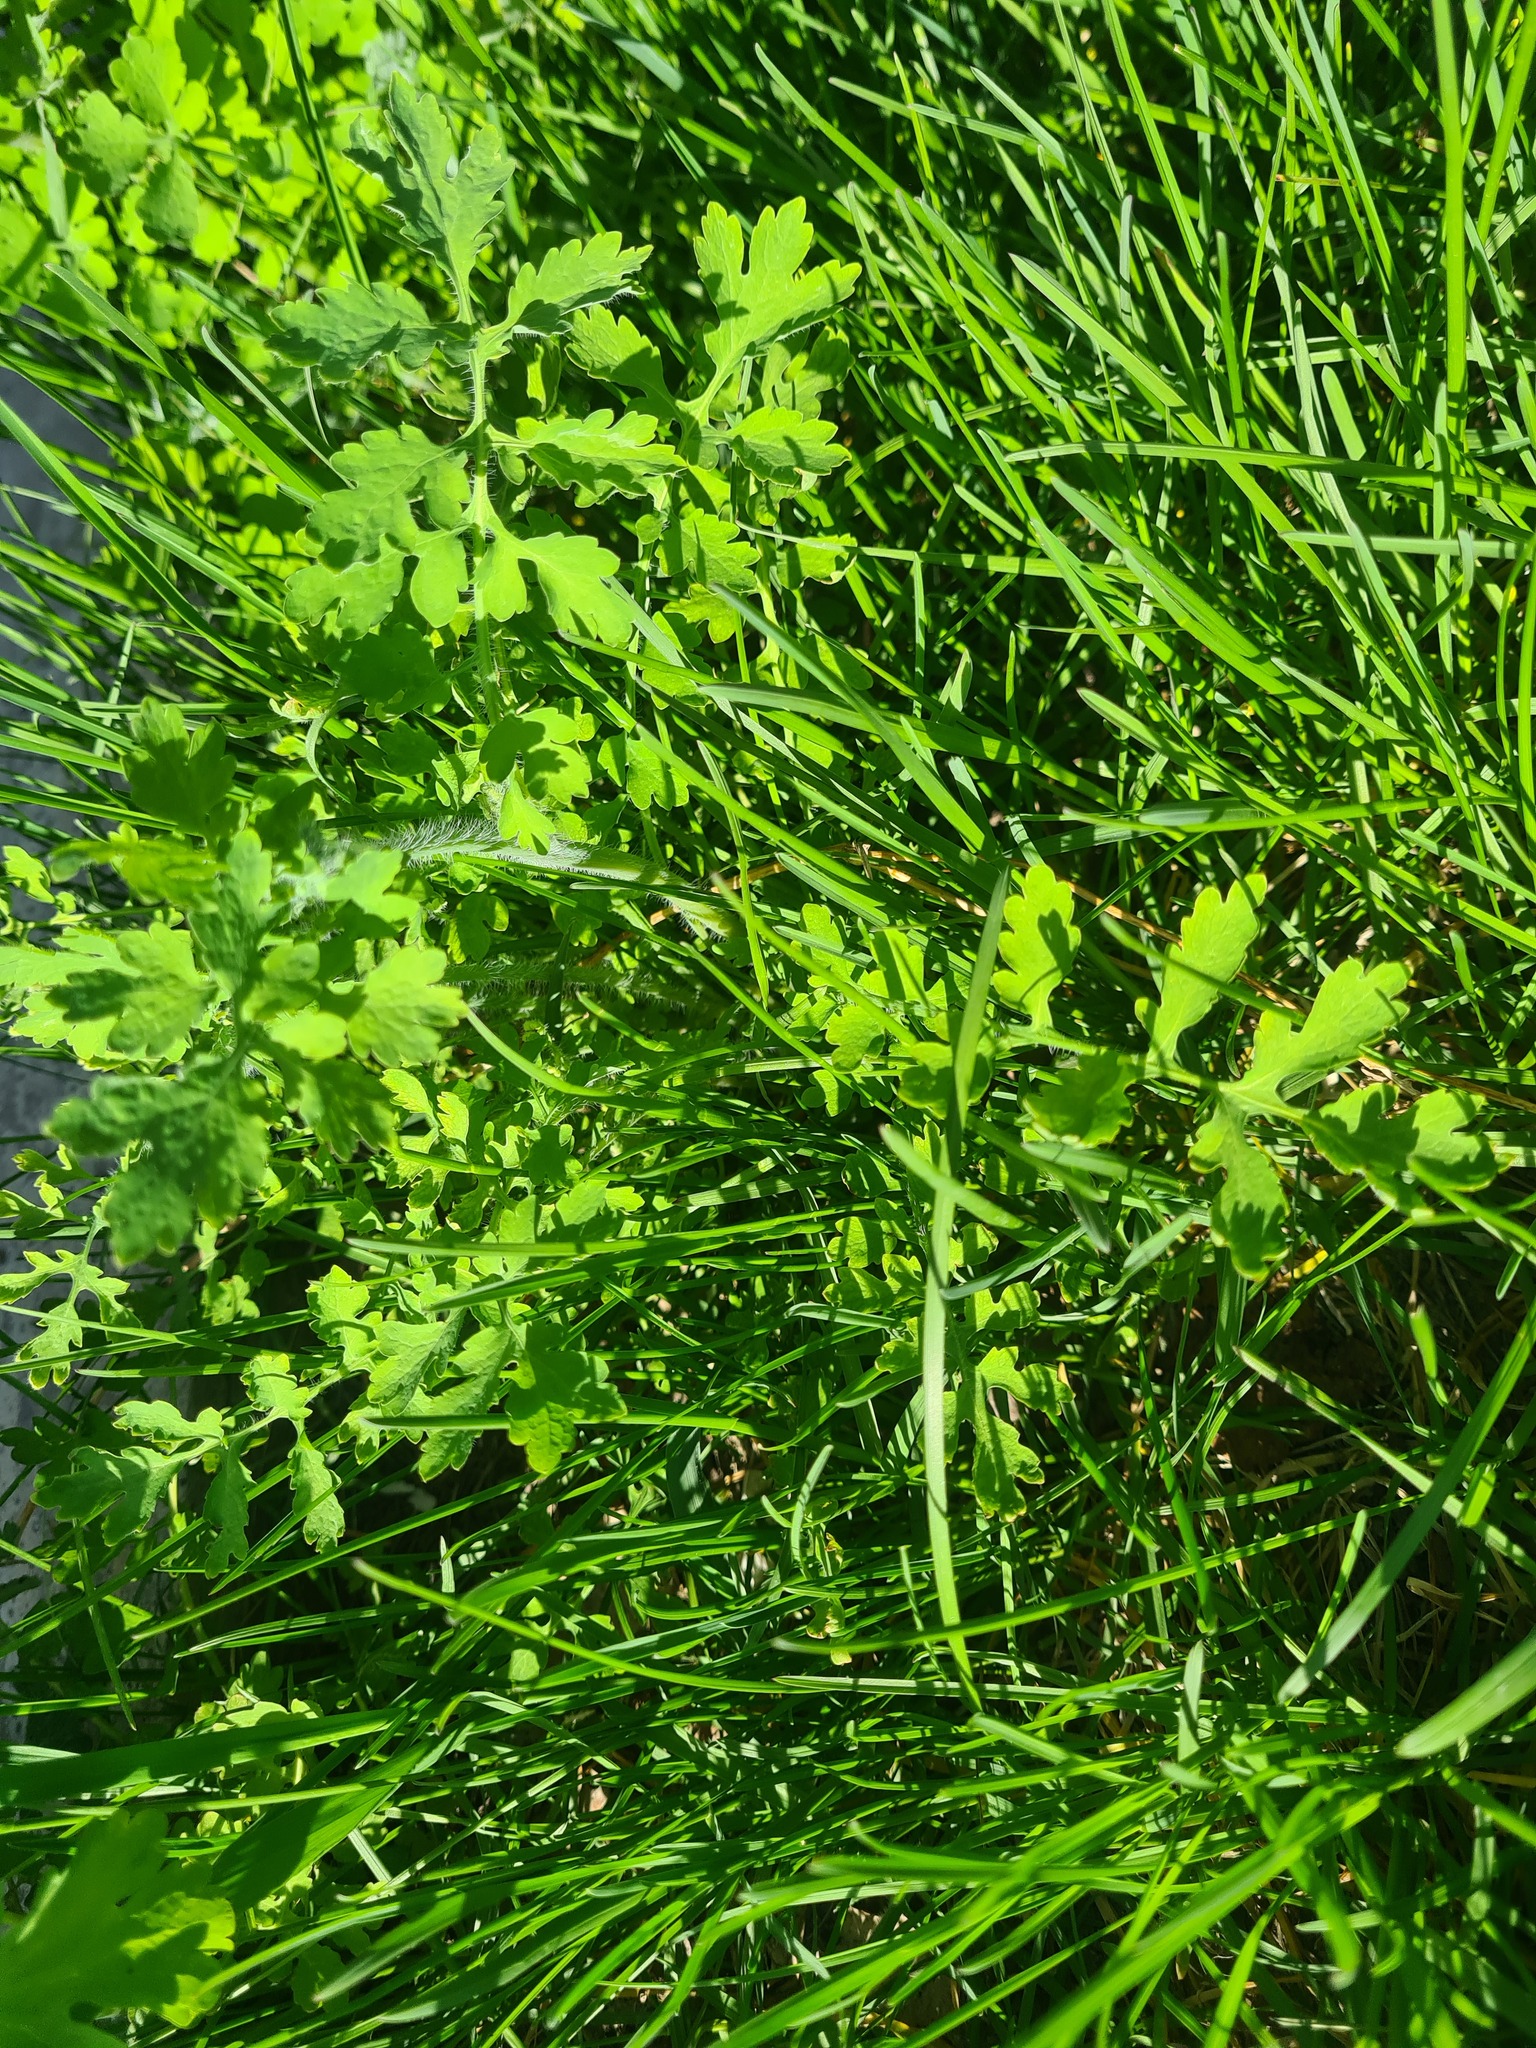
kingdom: Plantae
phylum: Tracheophyta
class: Magnoliopsida
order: Ranunculales
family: Papaveraceae
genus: Chelidonium
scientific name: Chelidonium majus
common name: Greater celandine
